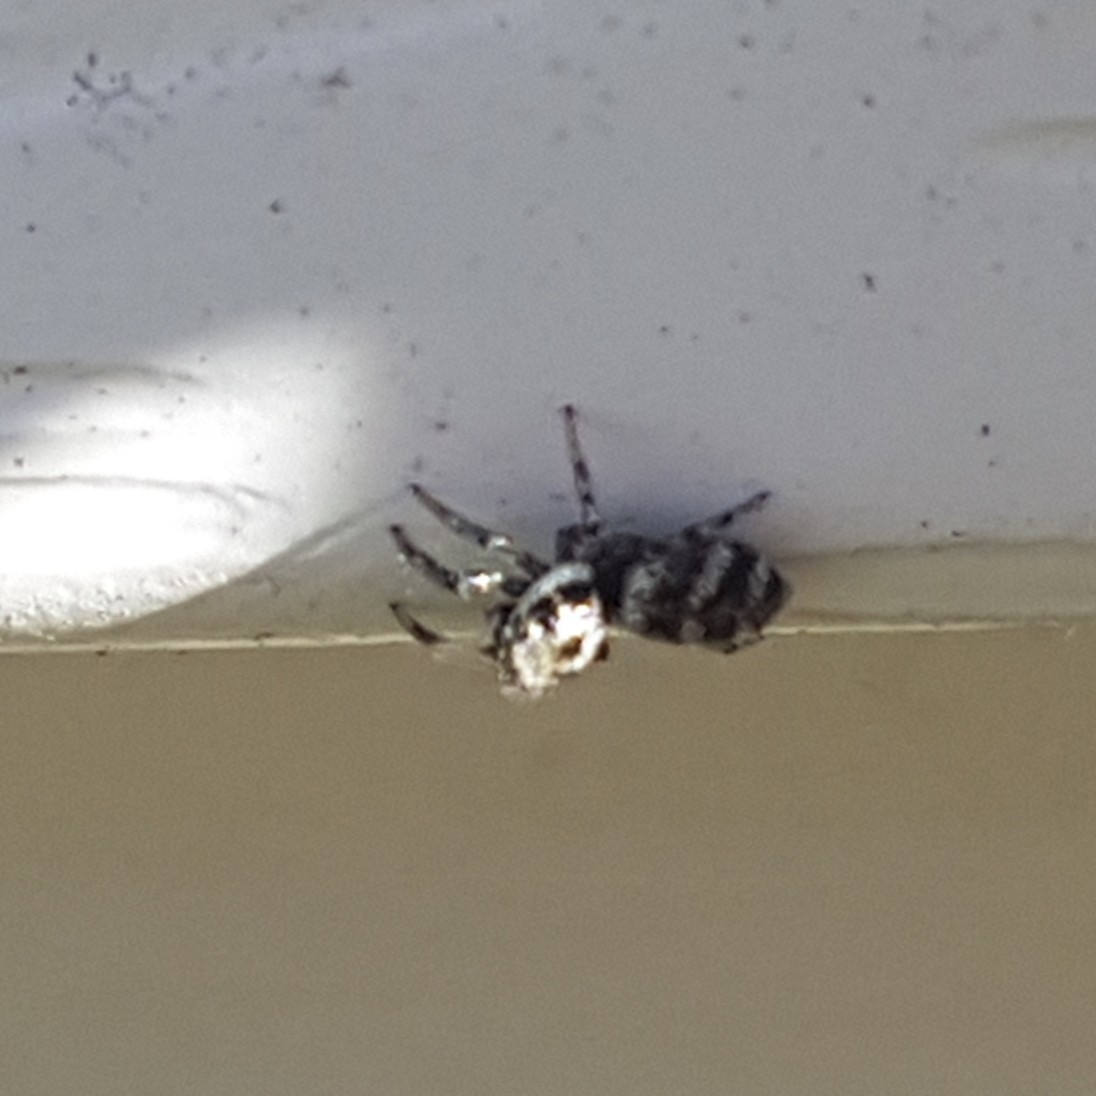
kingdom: Animalia
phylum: Arthropoda
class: Arachnida
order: Araneae
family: Salticidae
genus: Salticus
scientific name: Salticus scenicus
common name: Zebra jumper
